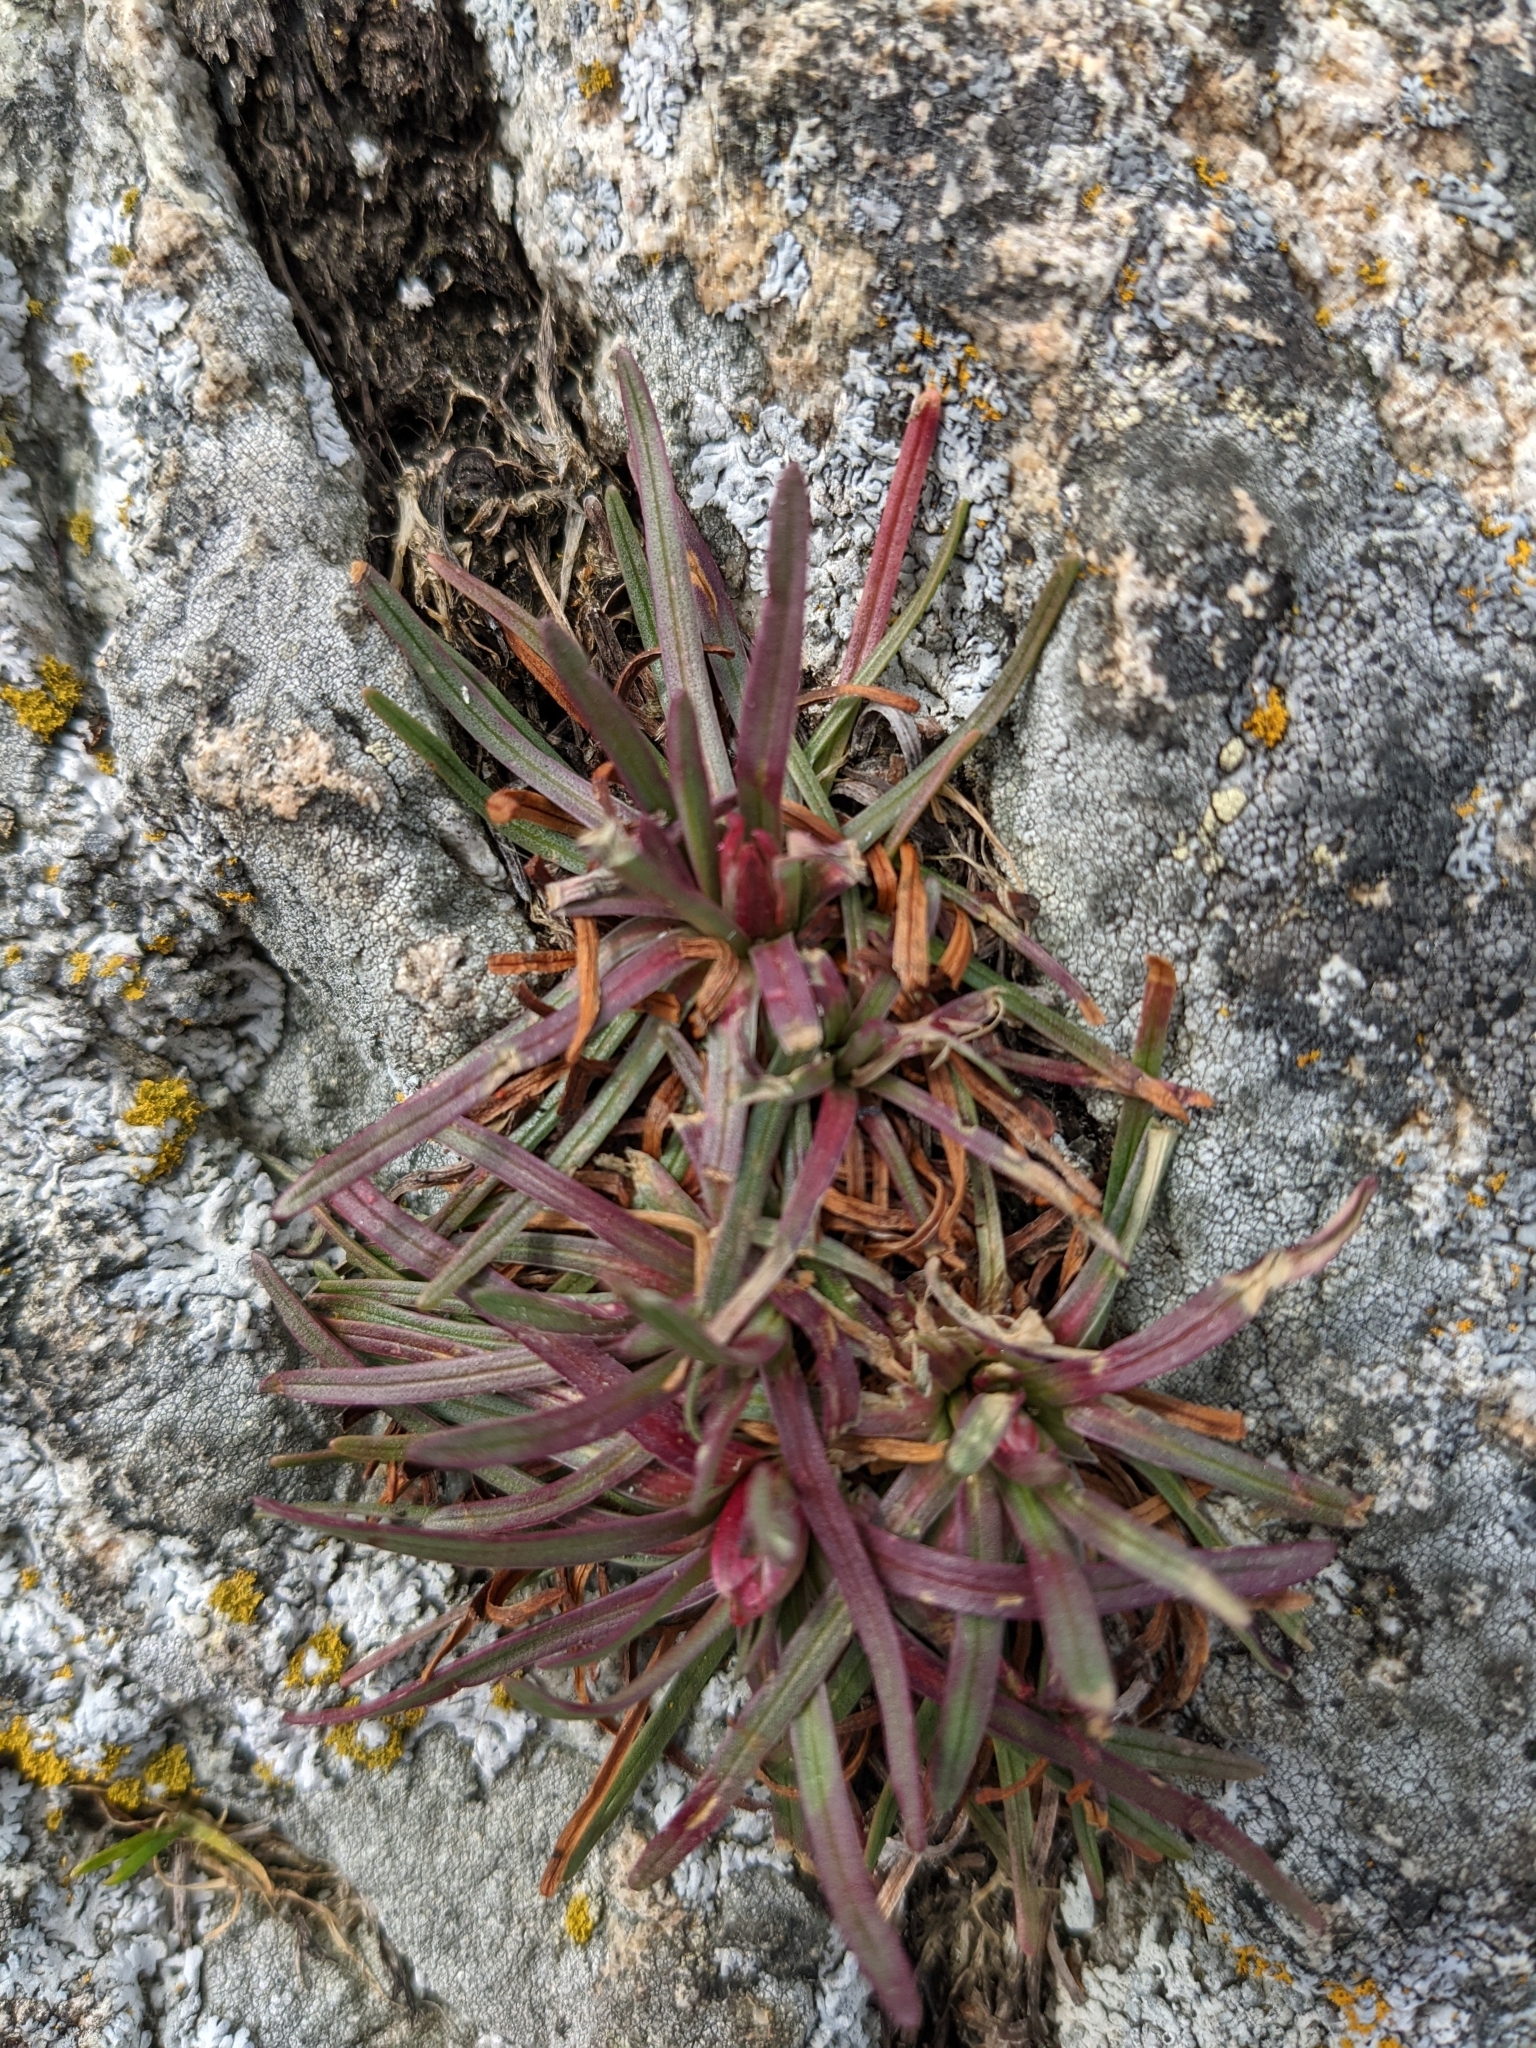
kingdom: Plantae
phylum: Tracheophyta
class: Magnoliopsida
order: Lamiales
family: Plantaginaceae
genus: Plantago
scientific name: Plantago maritima
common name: Sea plantain
